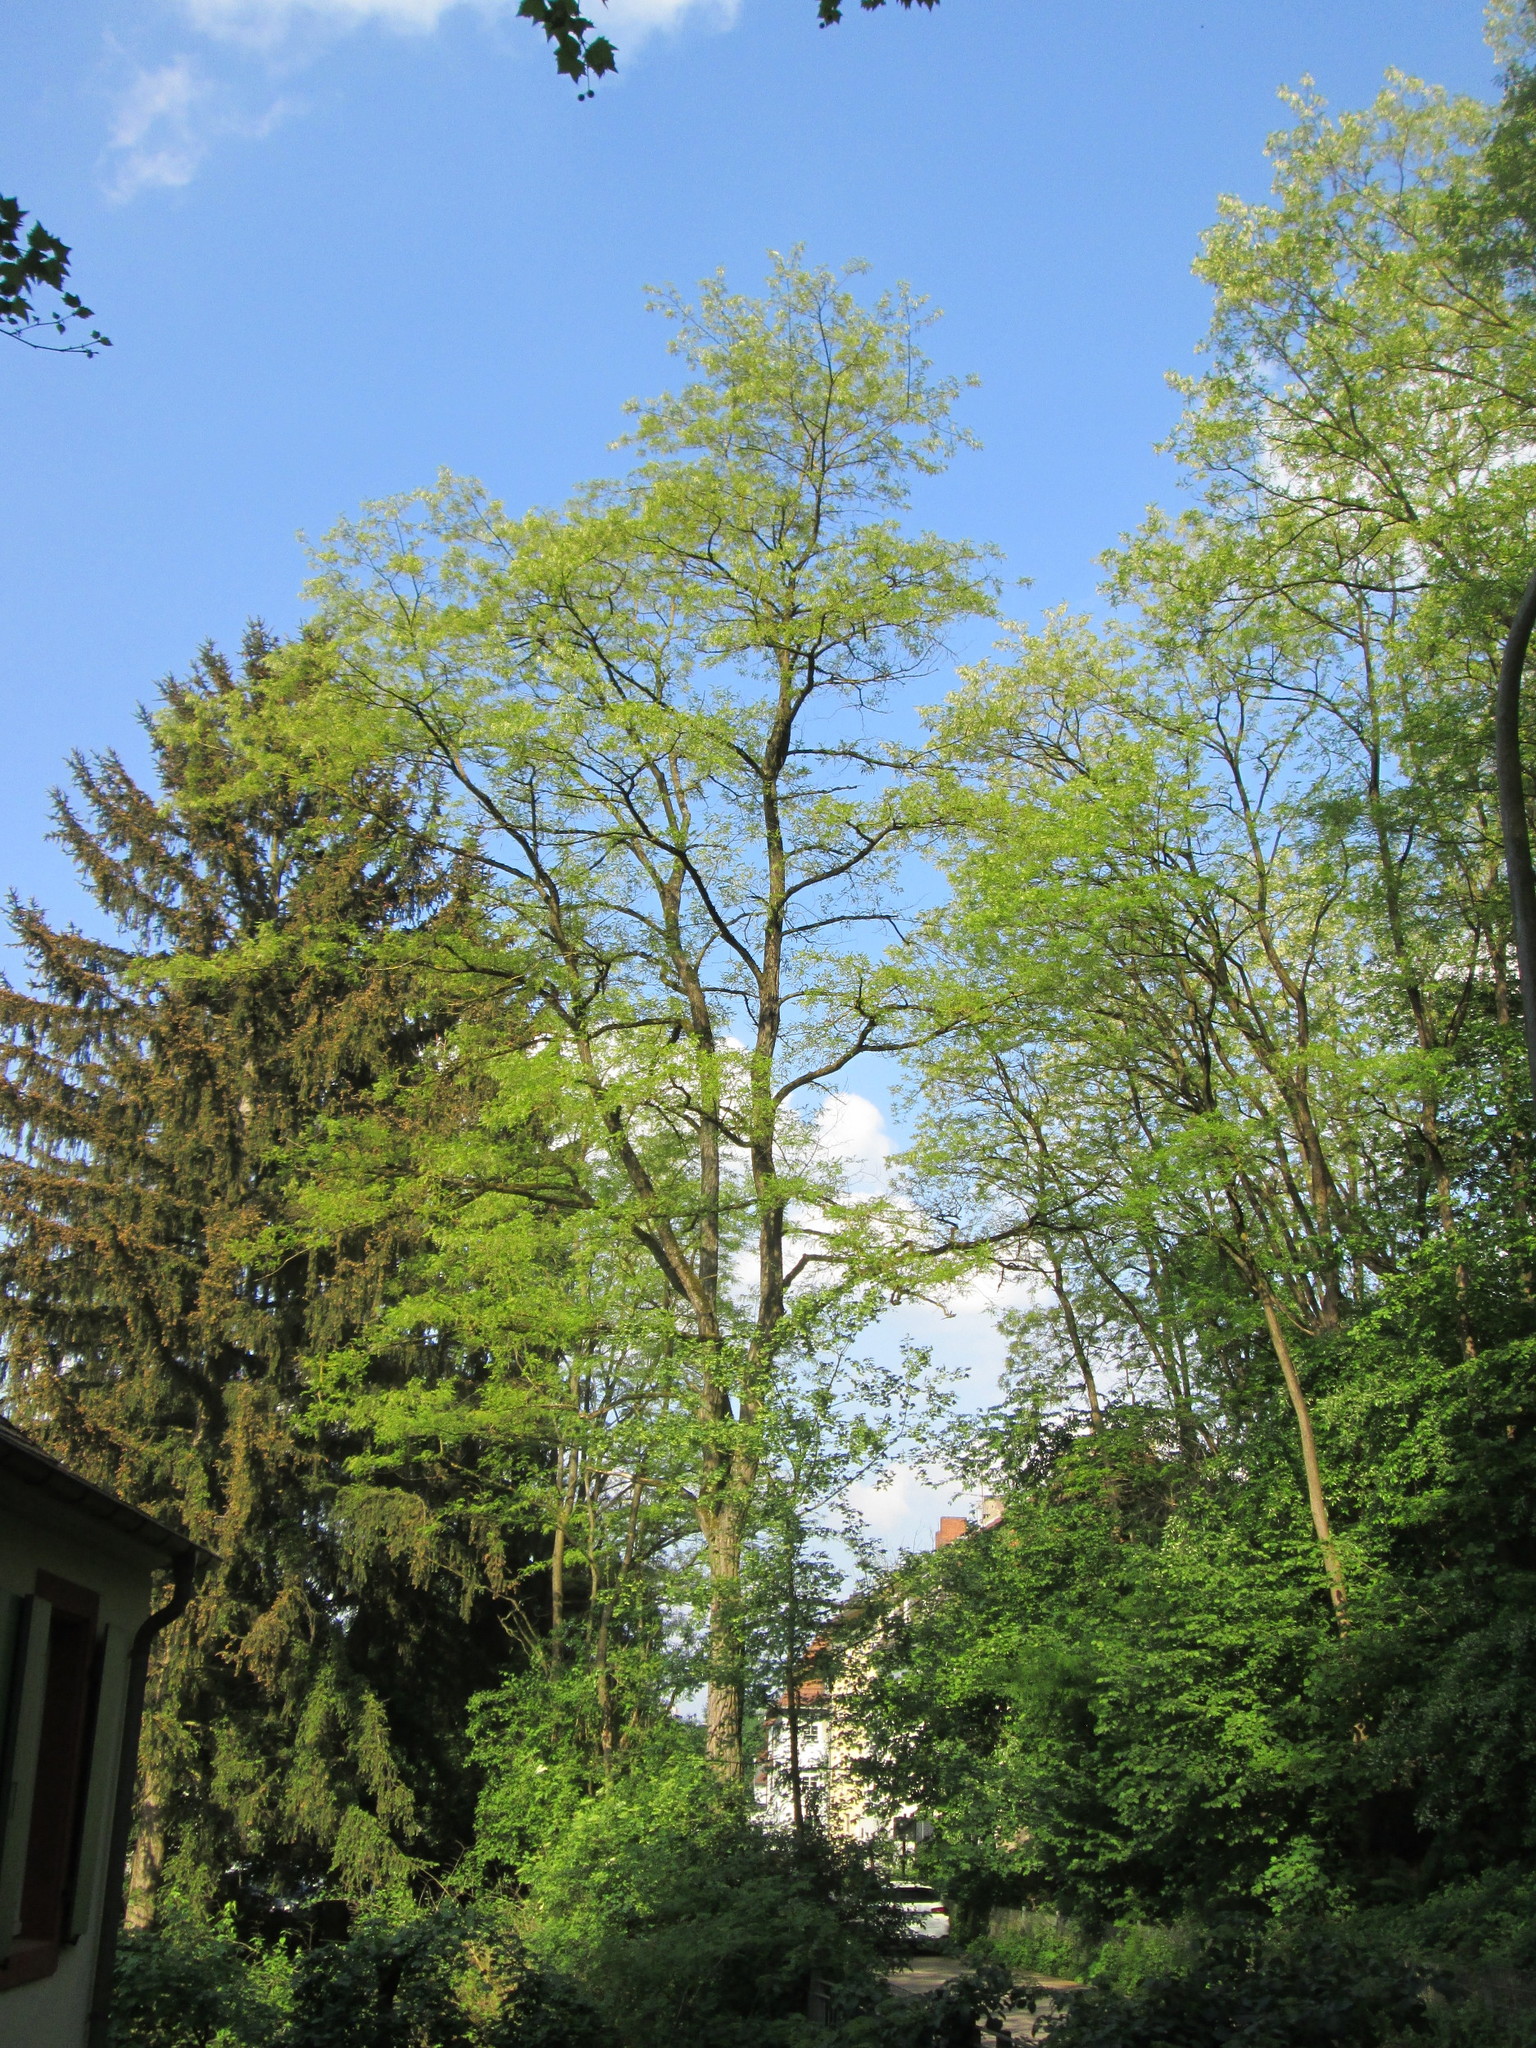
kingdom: Plantae
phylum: Tracheophyta
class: Magnoliopsida
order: Fabales
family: Fabaceae
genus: Robinia
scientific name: Robinia pseudoacacia
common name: Black locust
